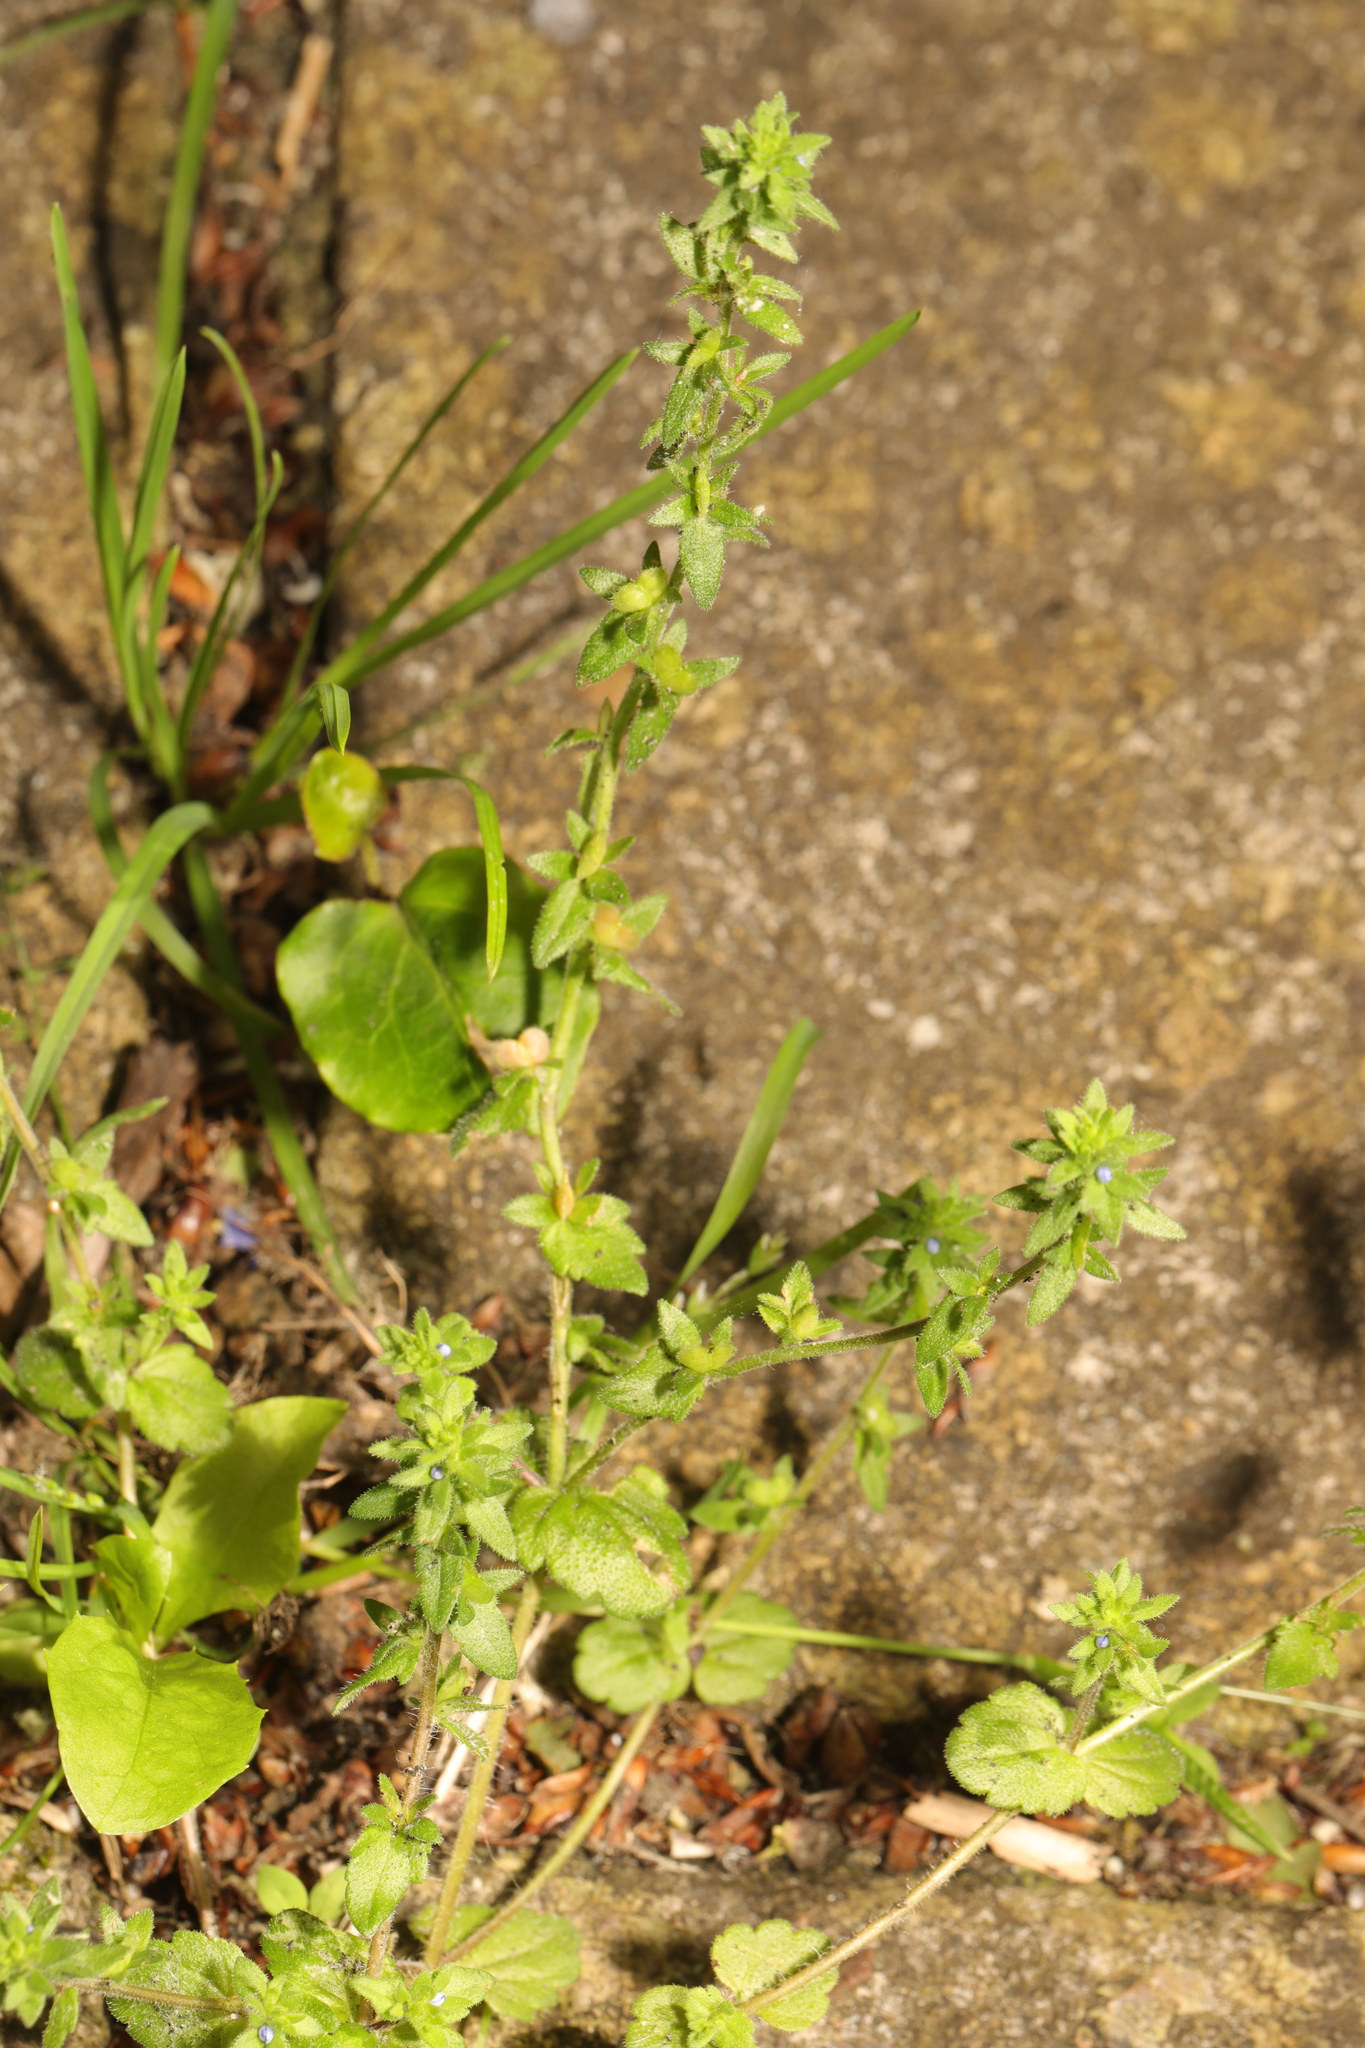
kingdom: Plantae
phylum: Tracheophyta
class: Magnoliopsida
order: Lamiales
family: Plantaginaceae
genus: Veronica
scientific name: Veronica arvensis
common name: Corn speedwell
